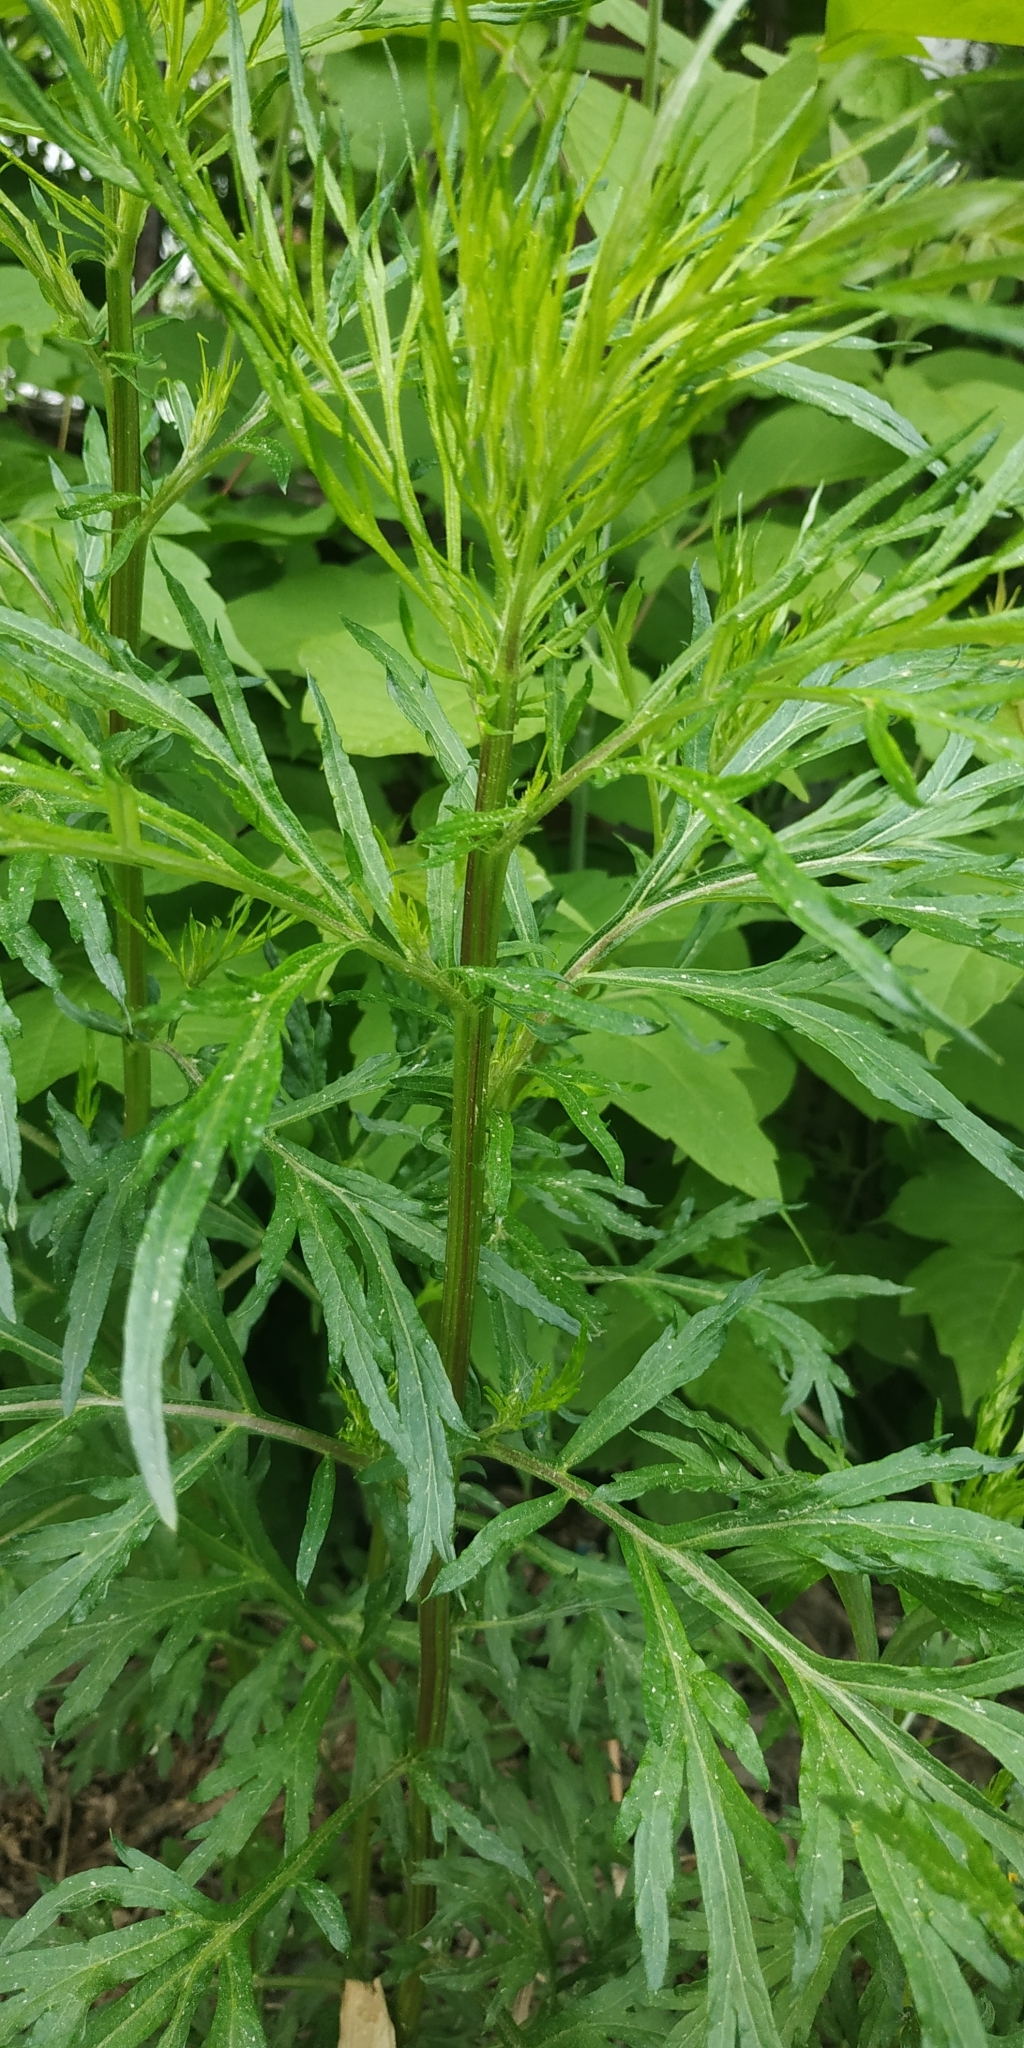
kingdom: Plantae
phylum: Tracheophyta
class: Magnoliopsida
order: Asterales
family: Asteraceae
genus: Artemisia
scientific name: Artemisia vulgaris
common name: Mugwort
